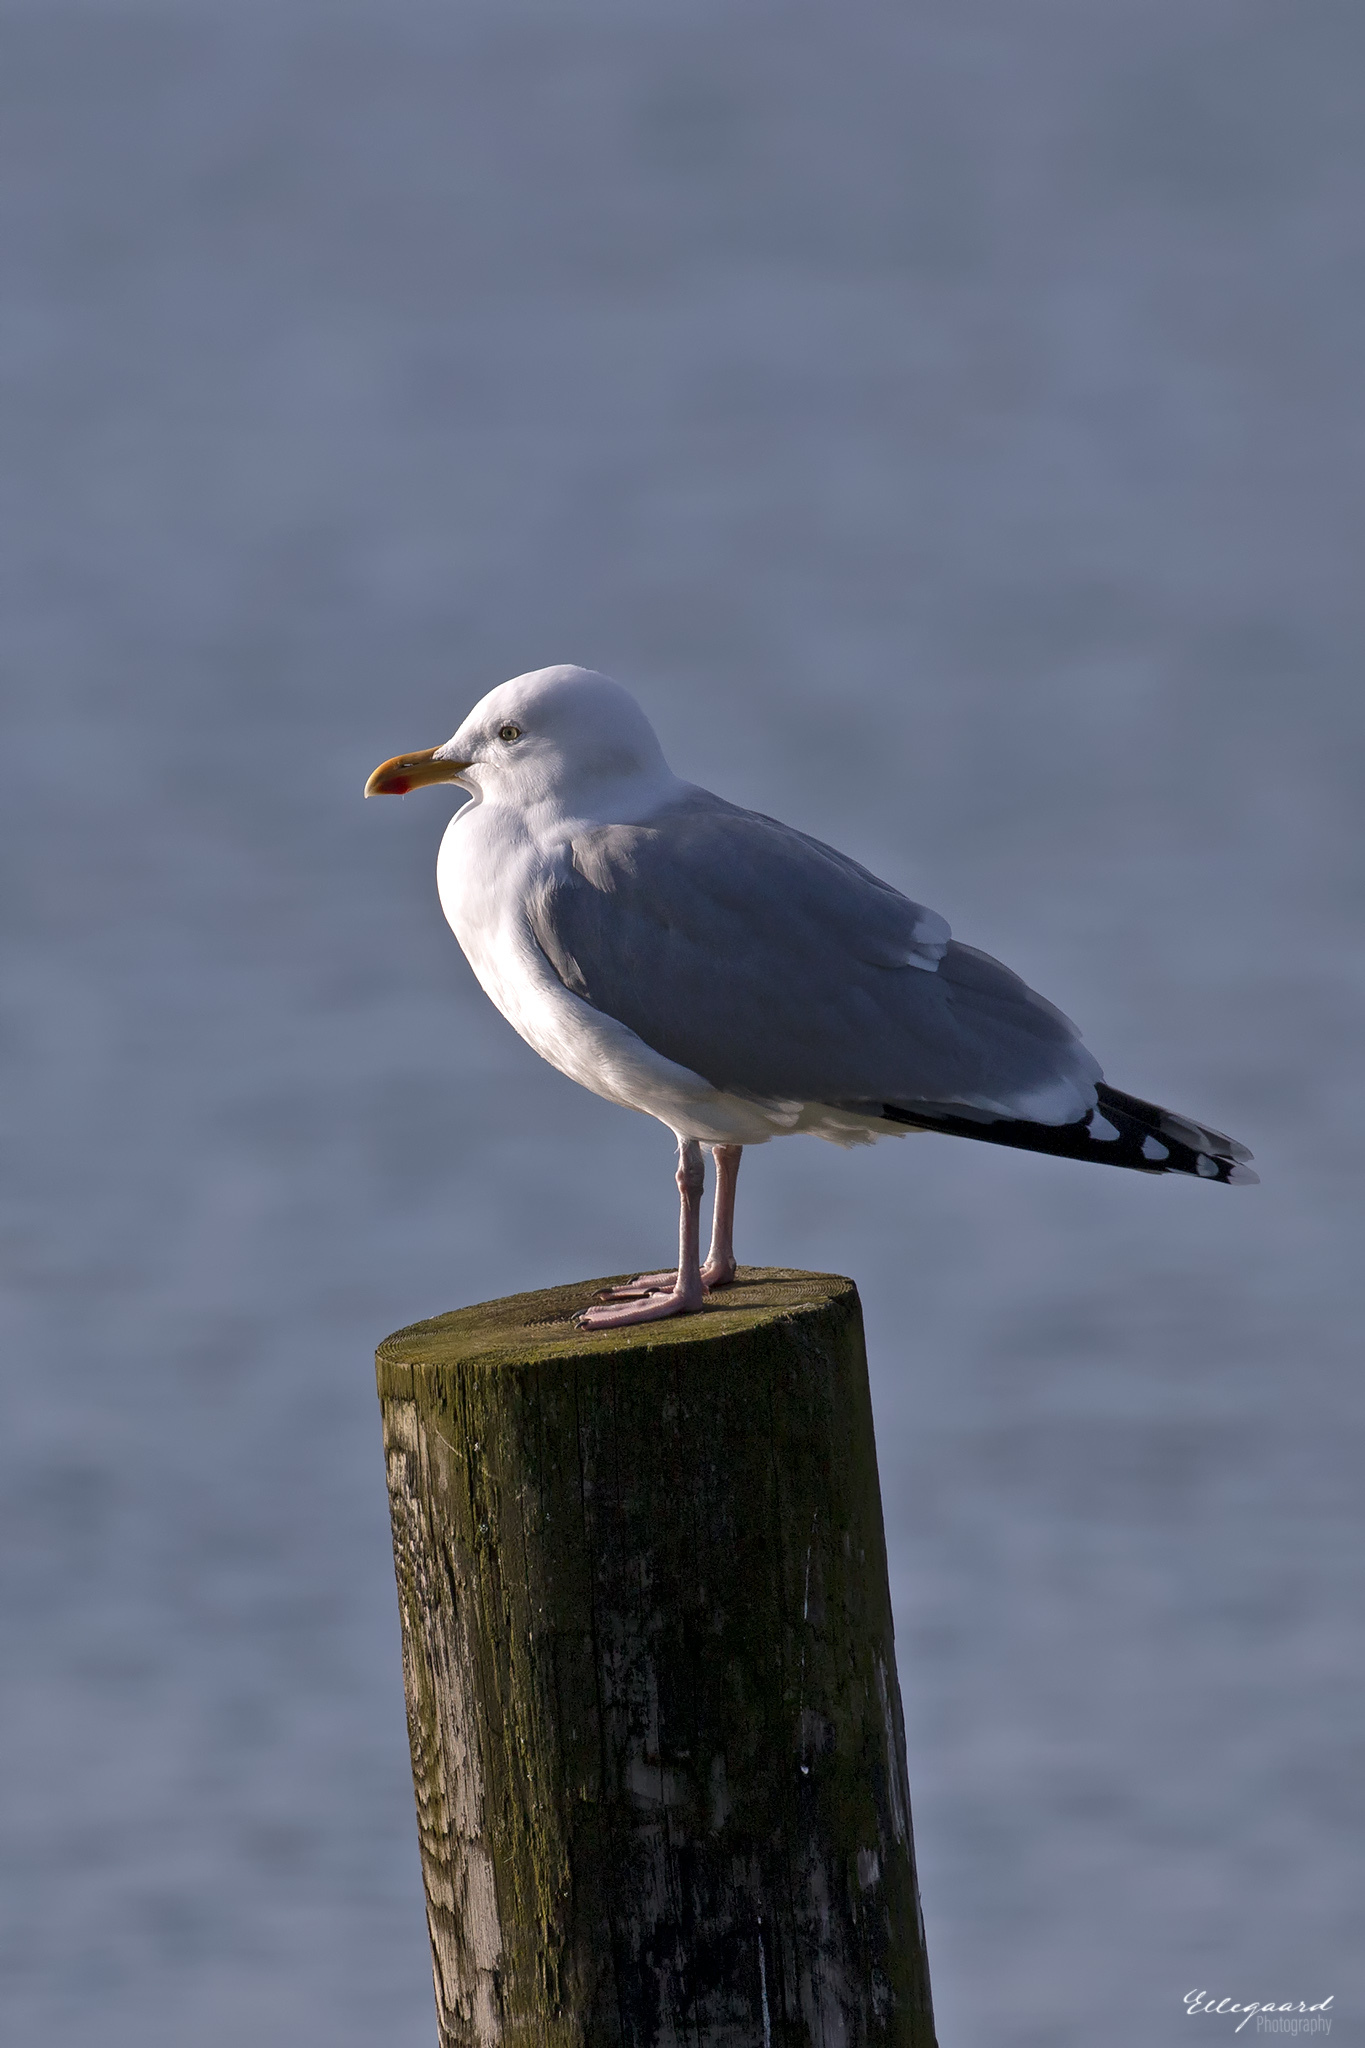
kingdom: Animalia
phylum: Chordata
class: Aves
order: Charadriiformes
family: Laridae
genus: Larus
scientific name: Larus argentatus
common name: Herring gull
